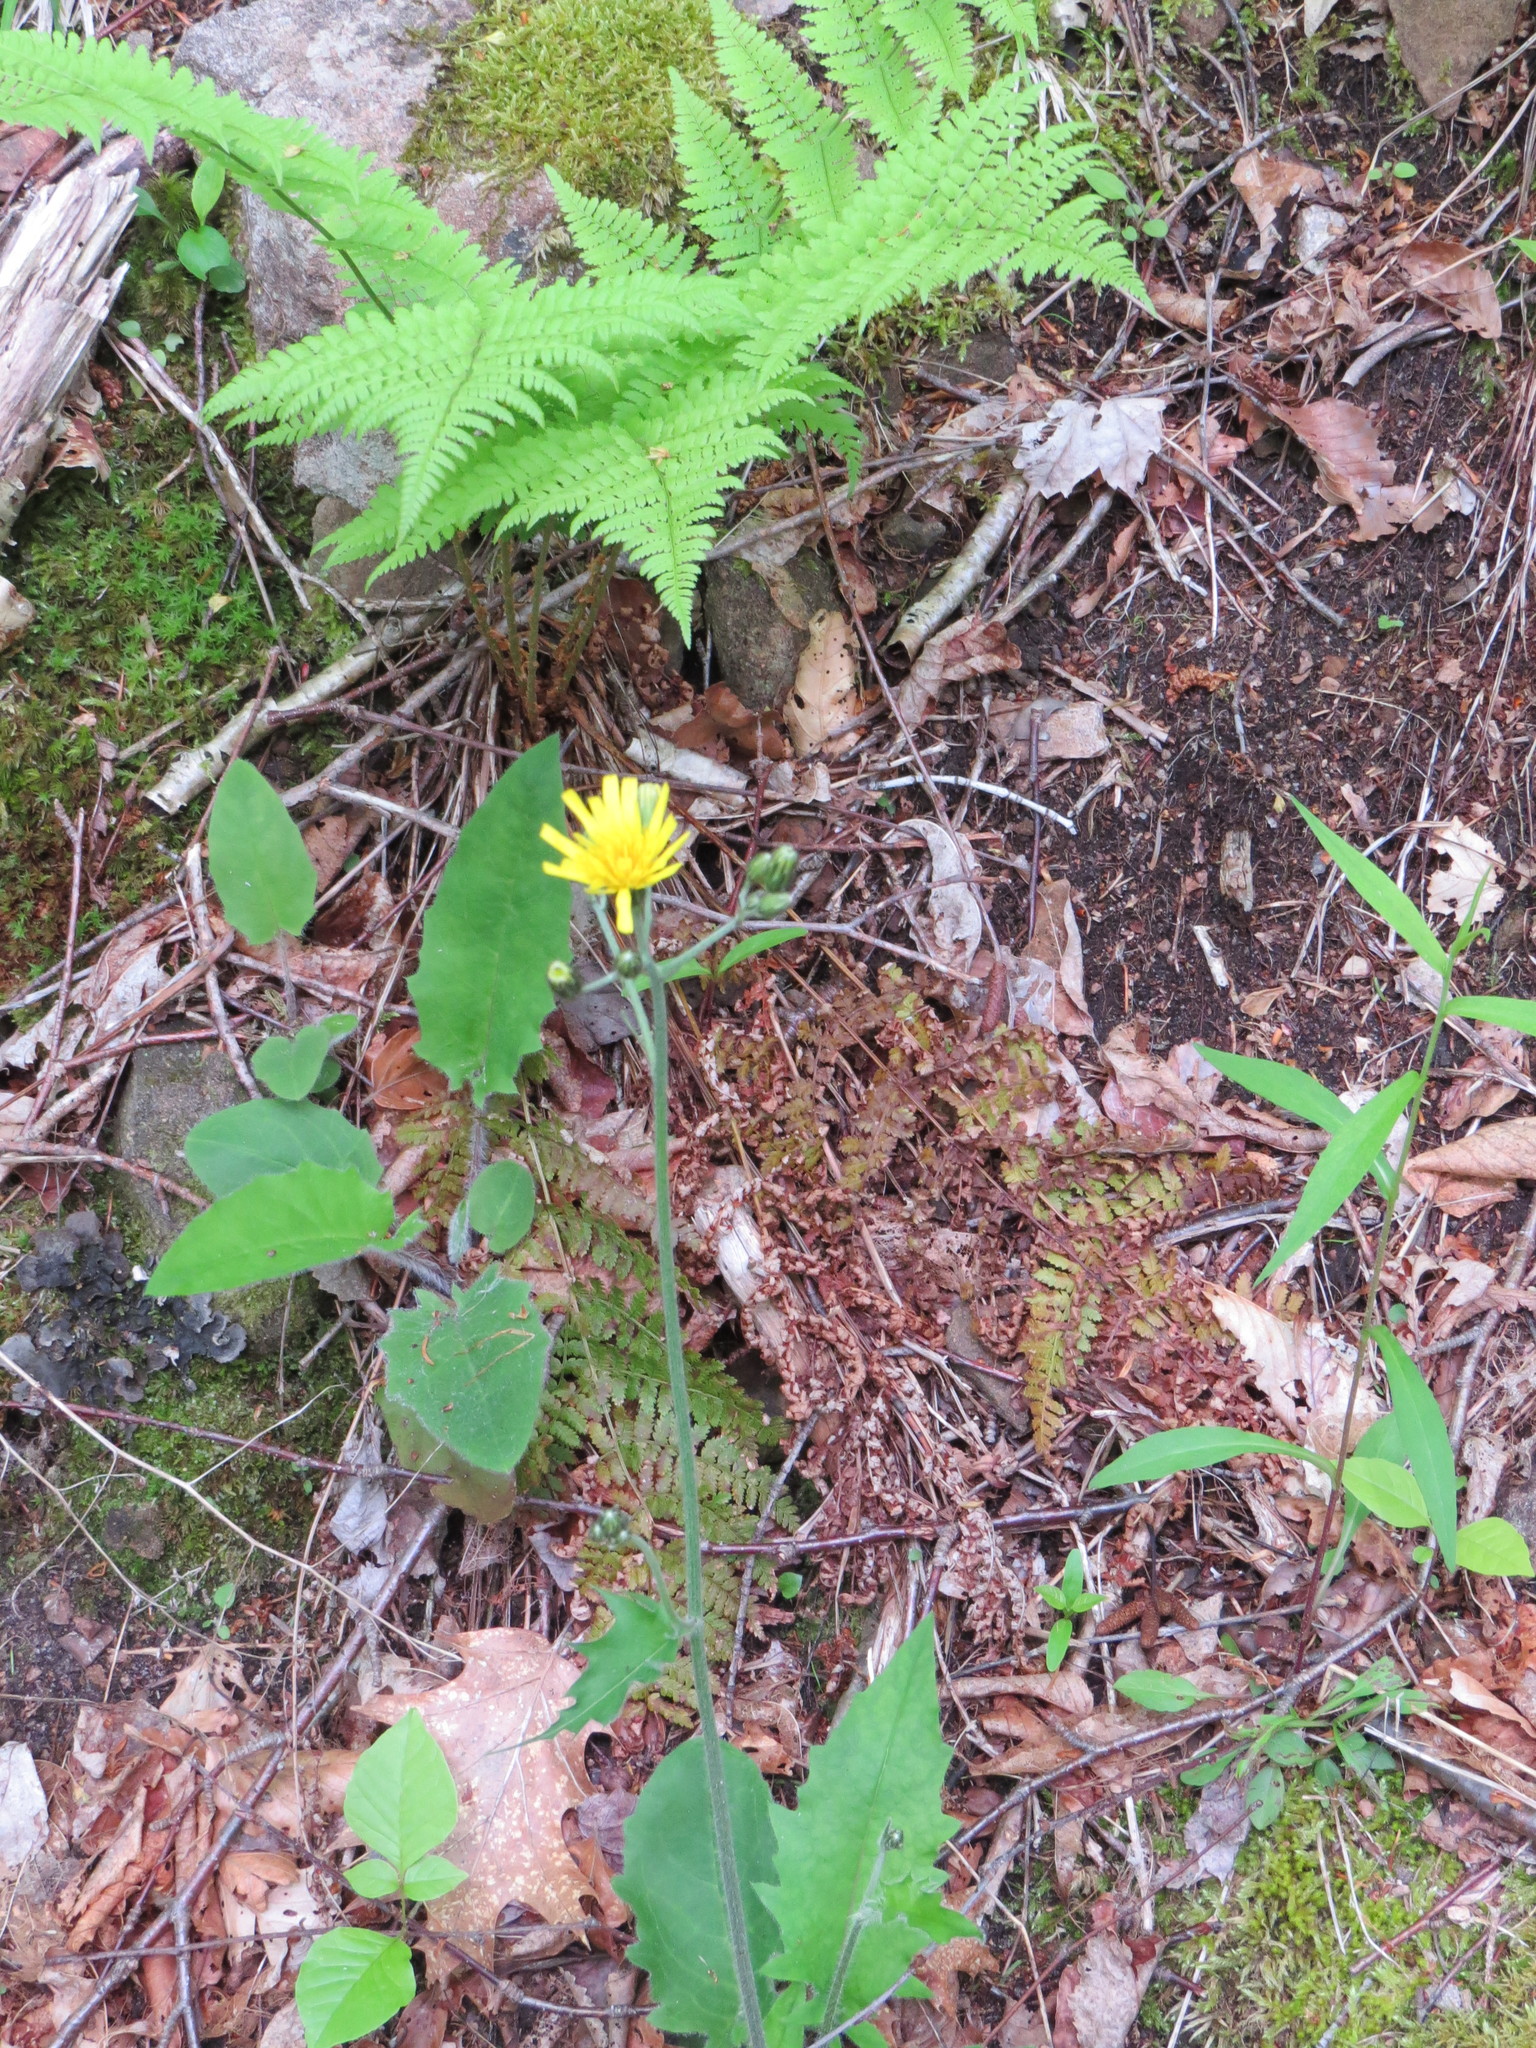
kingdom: Plantae
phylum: Tracheophyta
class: Magnoliopsida
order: Asterales
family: Asteraceae
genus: Hieracium
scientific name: Hieracium murorum
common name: Wall hawkweed
